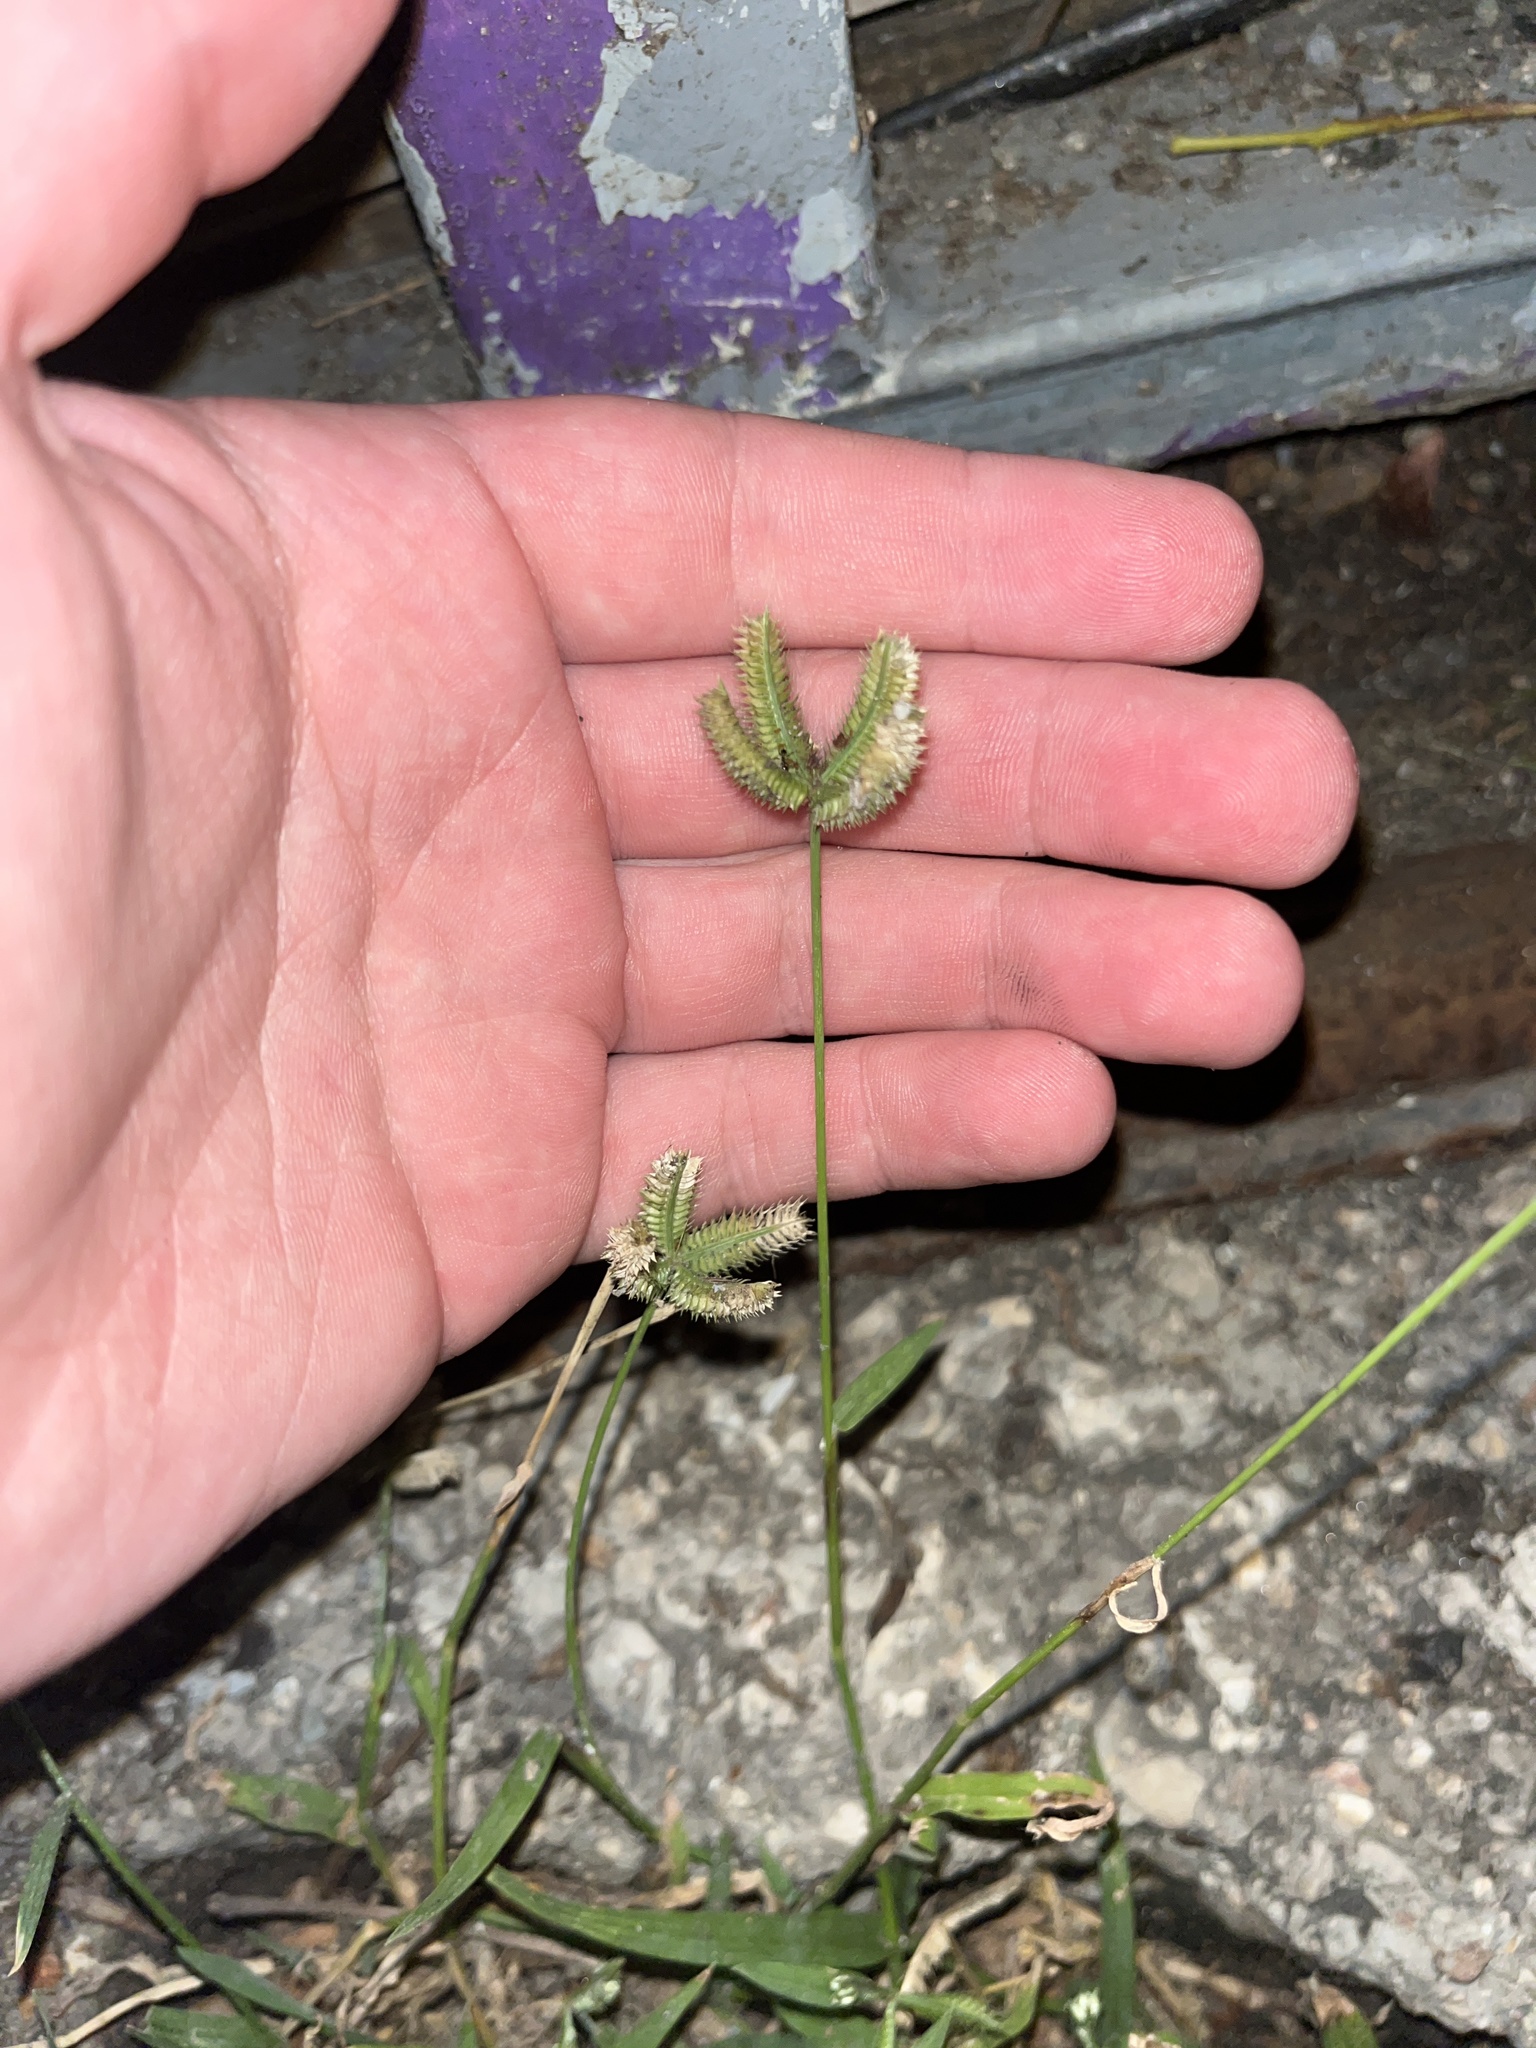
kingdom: Plantae
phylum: Tracheophyta
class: Liliopsida
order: Poales
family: Poaceae
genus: Dactyloctenium
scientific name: Dactyloctenium aegyptium
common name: Egyptian grass
